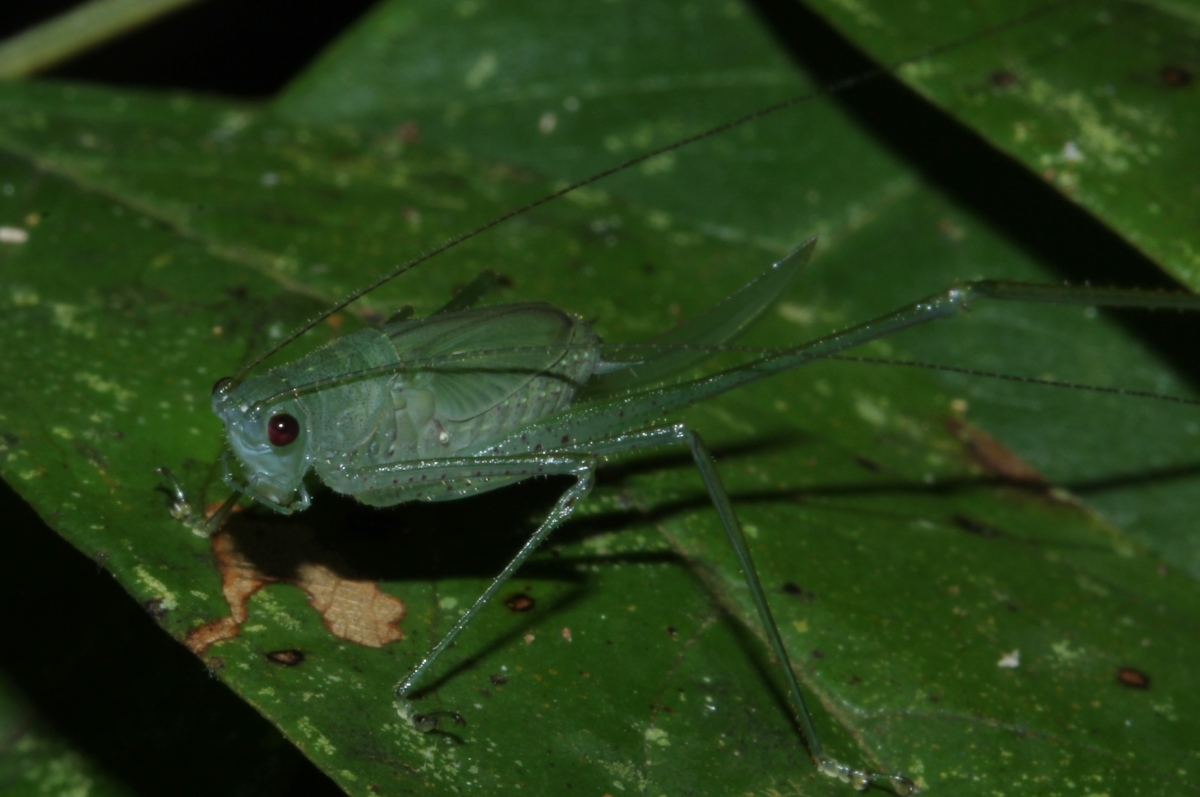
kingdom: Animalia
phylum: Arthropoda
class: Insecta
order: Orthoptera
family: Tettigoniidae
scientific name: Tettigoniidae
